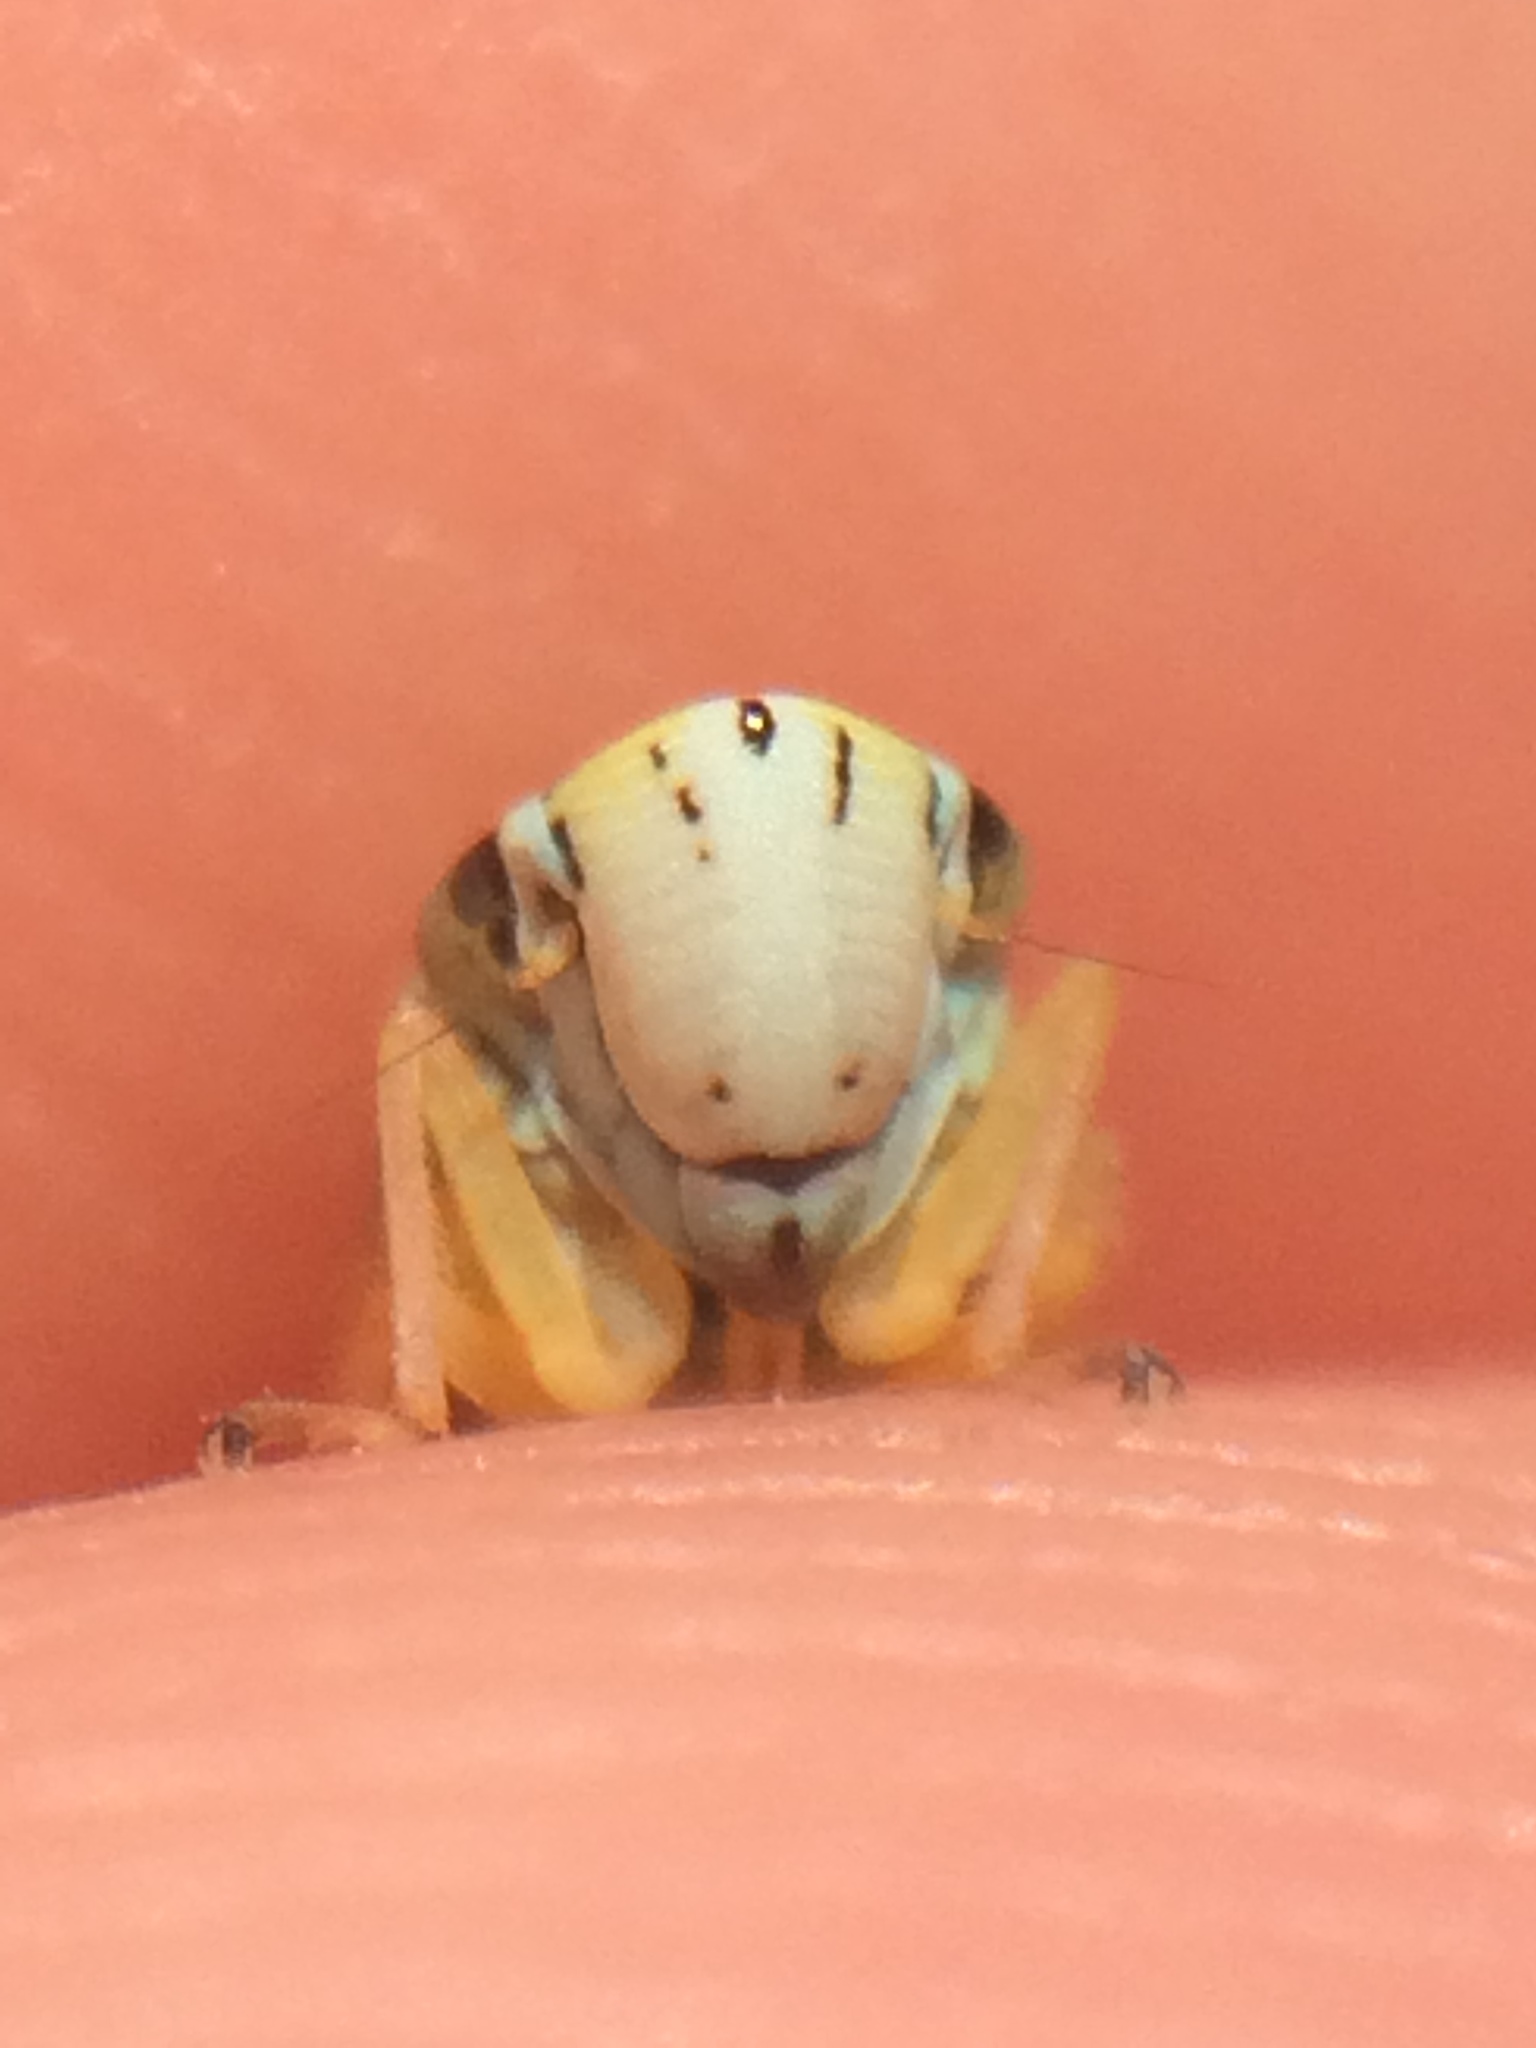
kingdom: Animalia
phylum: Arthropoda
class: Insecta
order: Hemiptera
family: Cicadellidae
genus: Graphocephala
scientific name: Graphocephala atropunctata
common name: Blue-green sharpshooter
